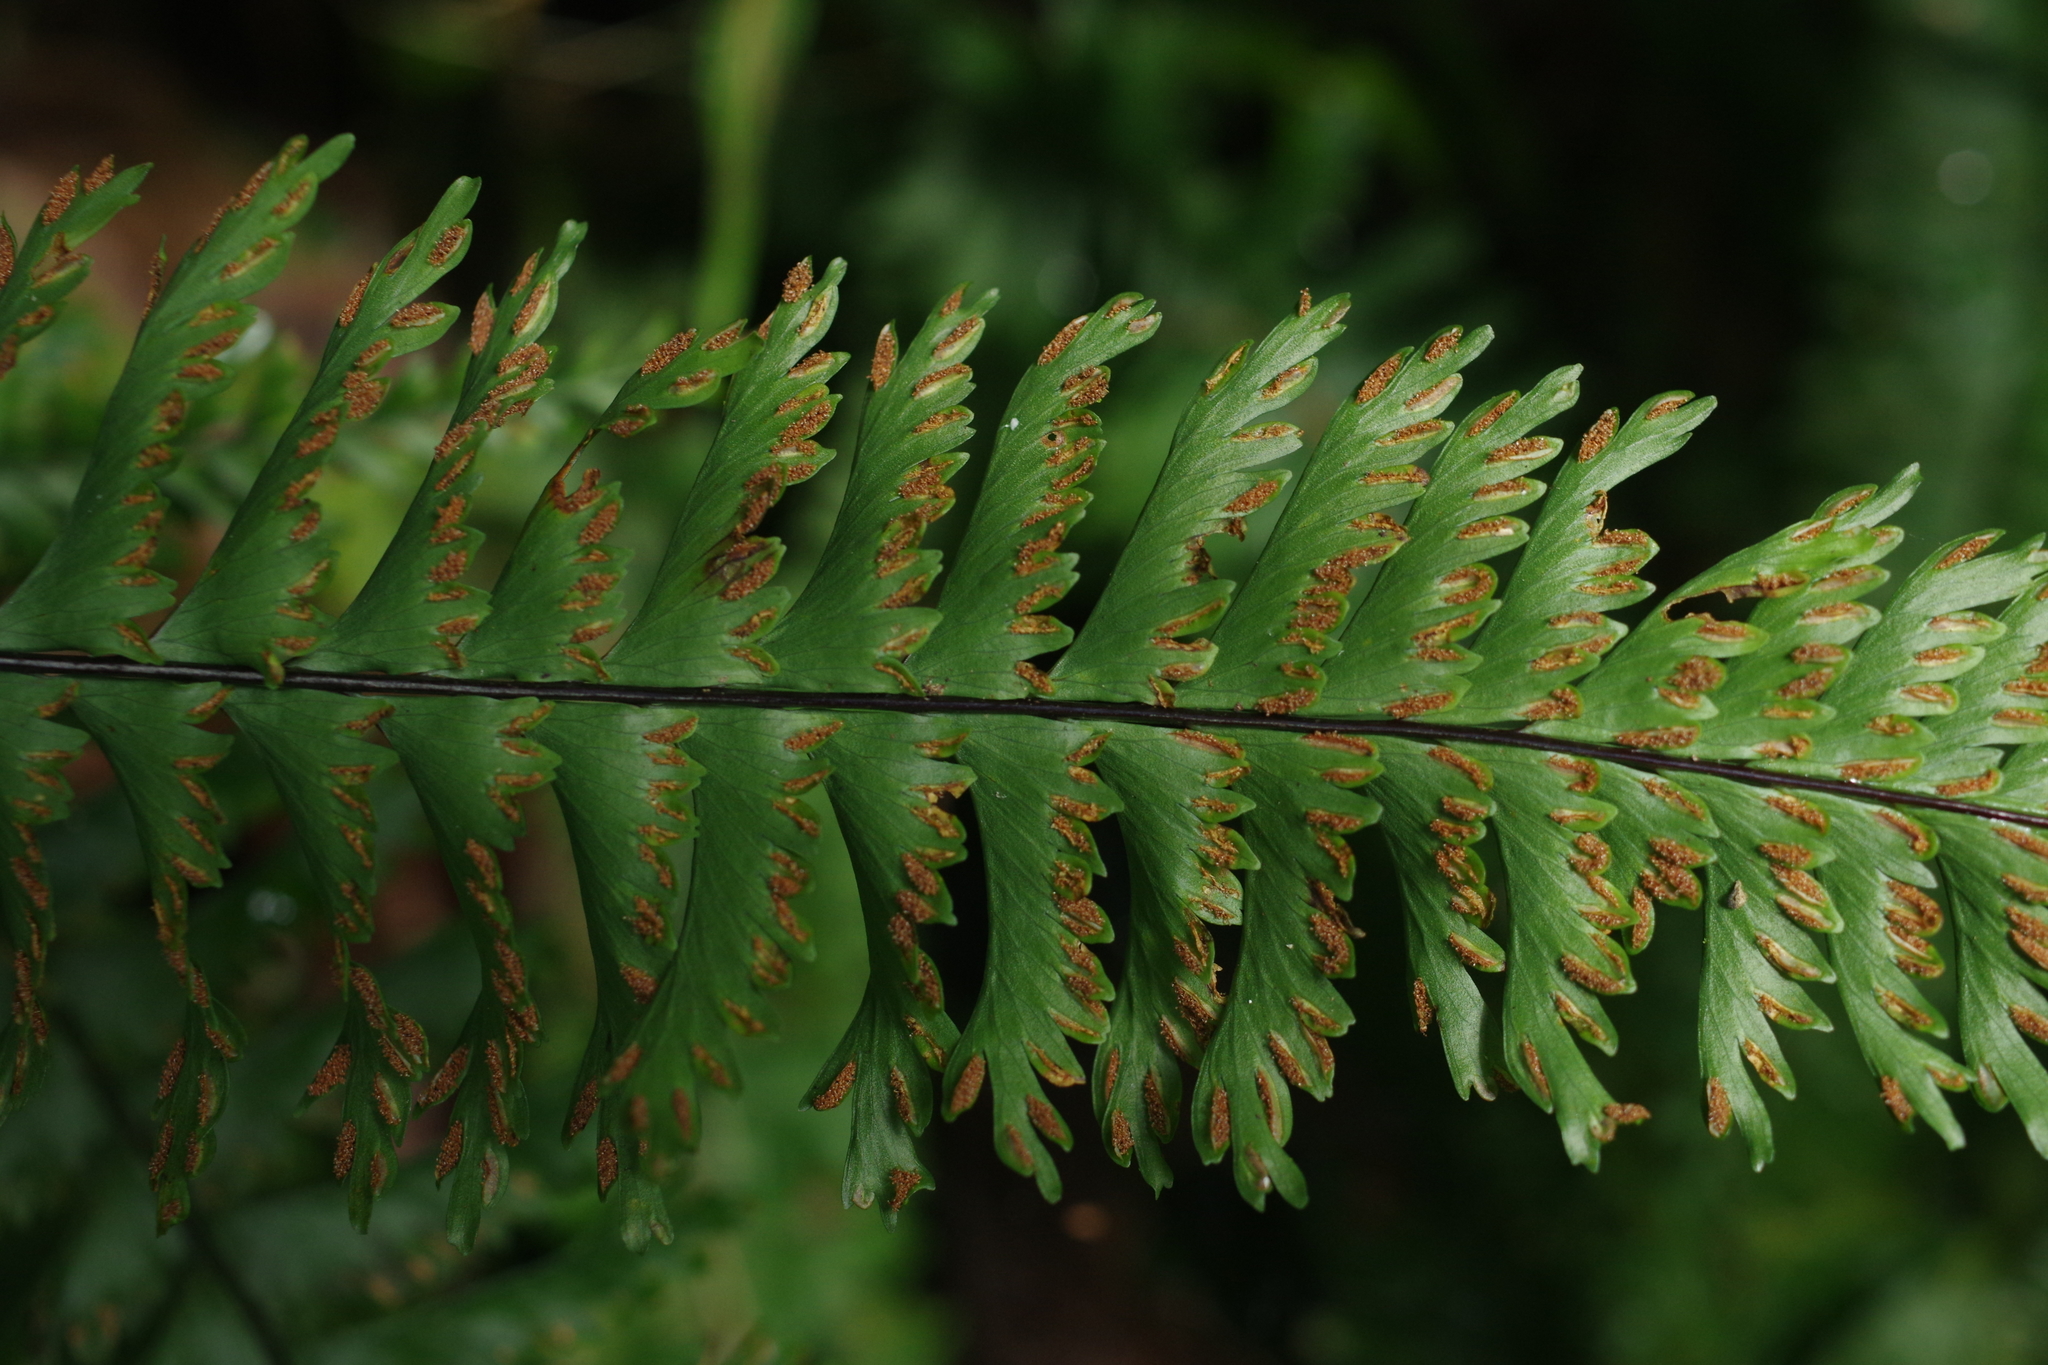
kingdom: Plantae
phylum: Tracheophyta
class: Polypodiopsida
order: Polypodiales
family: Aspleniaceae
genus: Hymenasplenium
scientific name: Hymenasplenium cheilosorum
